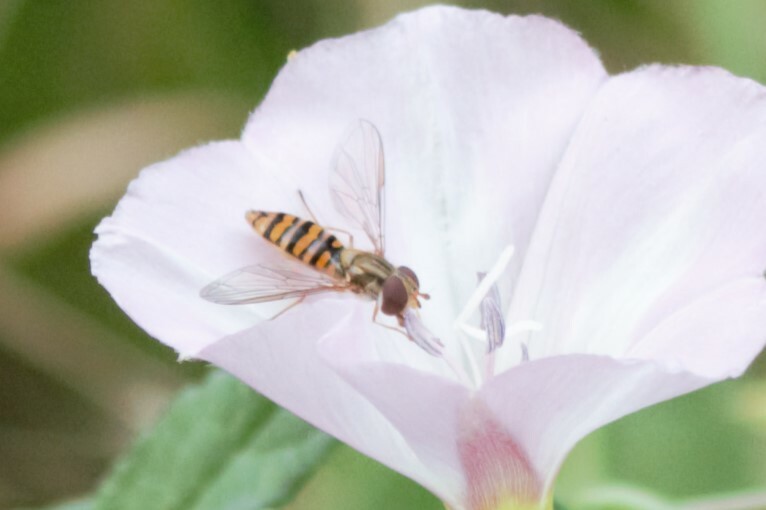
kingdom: Animalia
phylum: Arthropoda
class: Insecta
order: Diptera
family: Syrphidae
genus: Episyrphus
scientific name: Episyrphus balteatus
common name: Marmalade hoverfly
